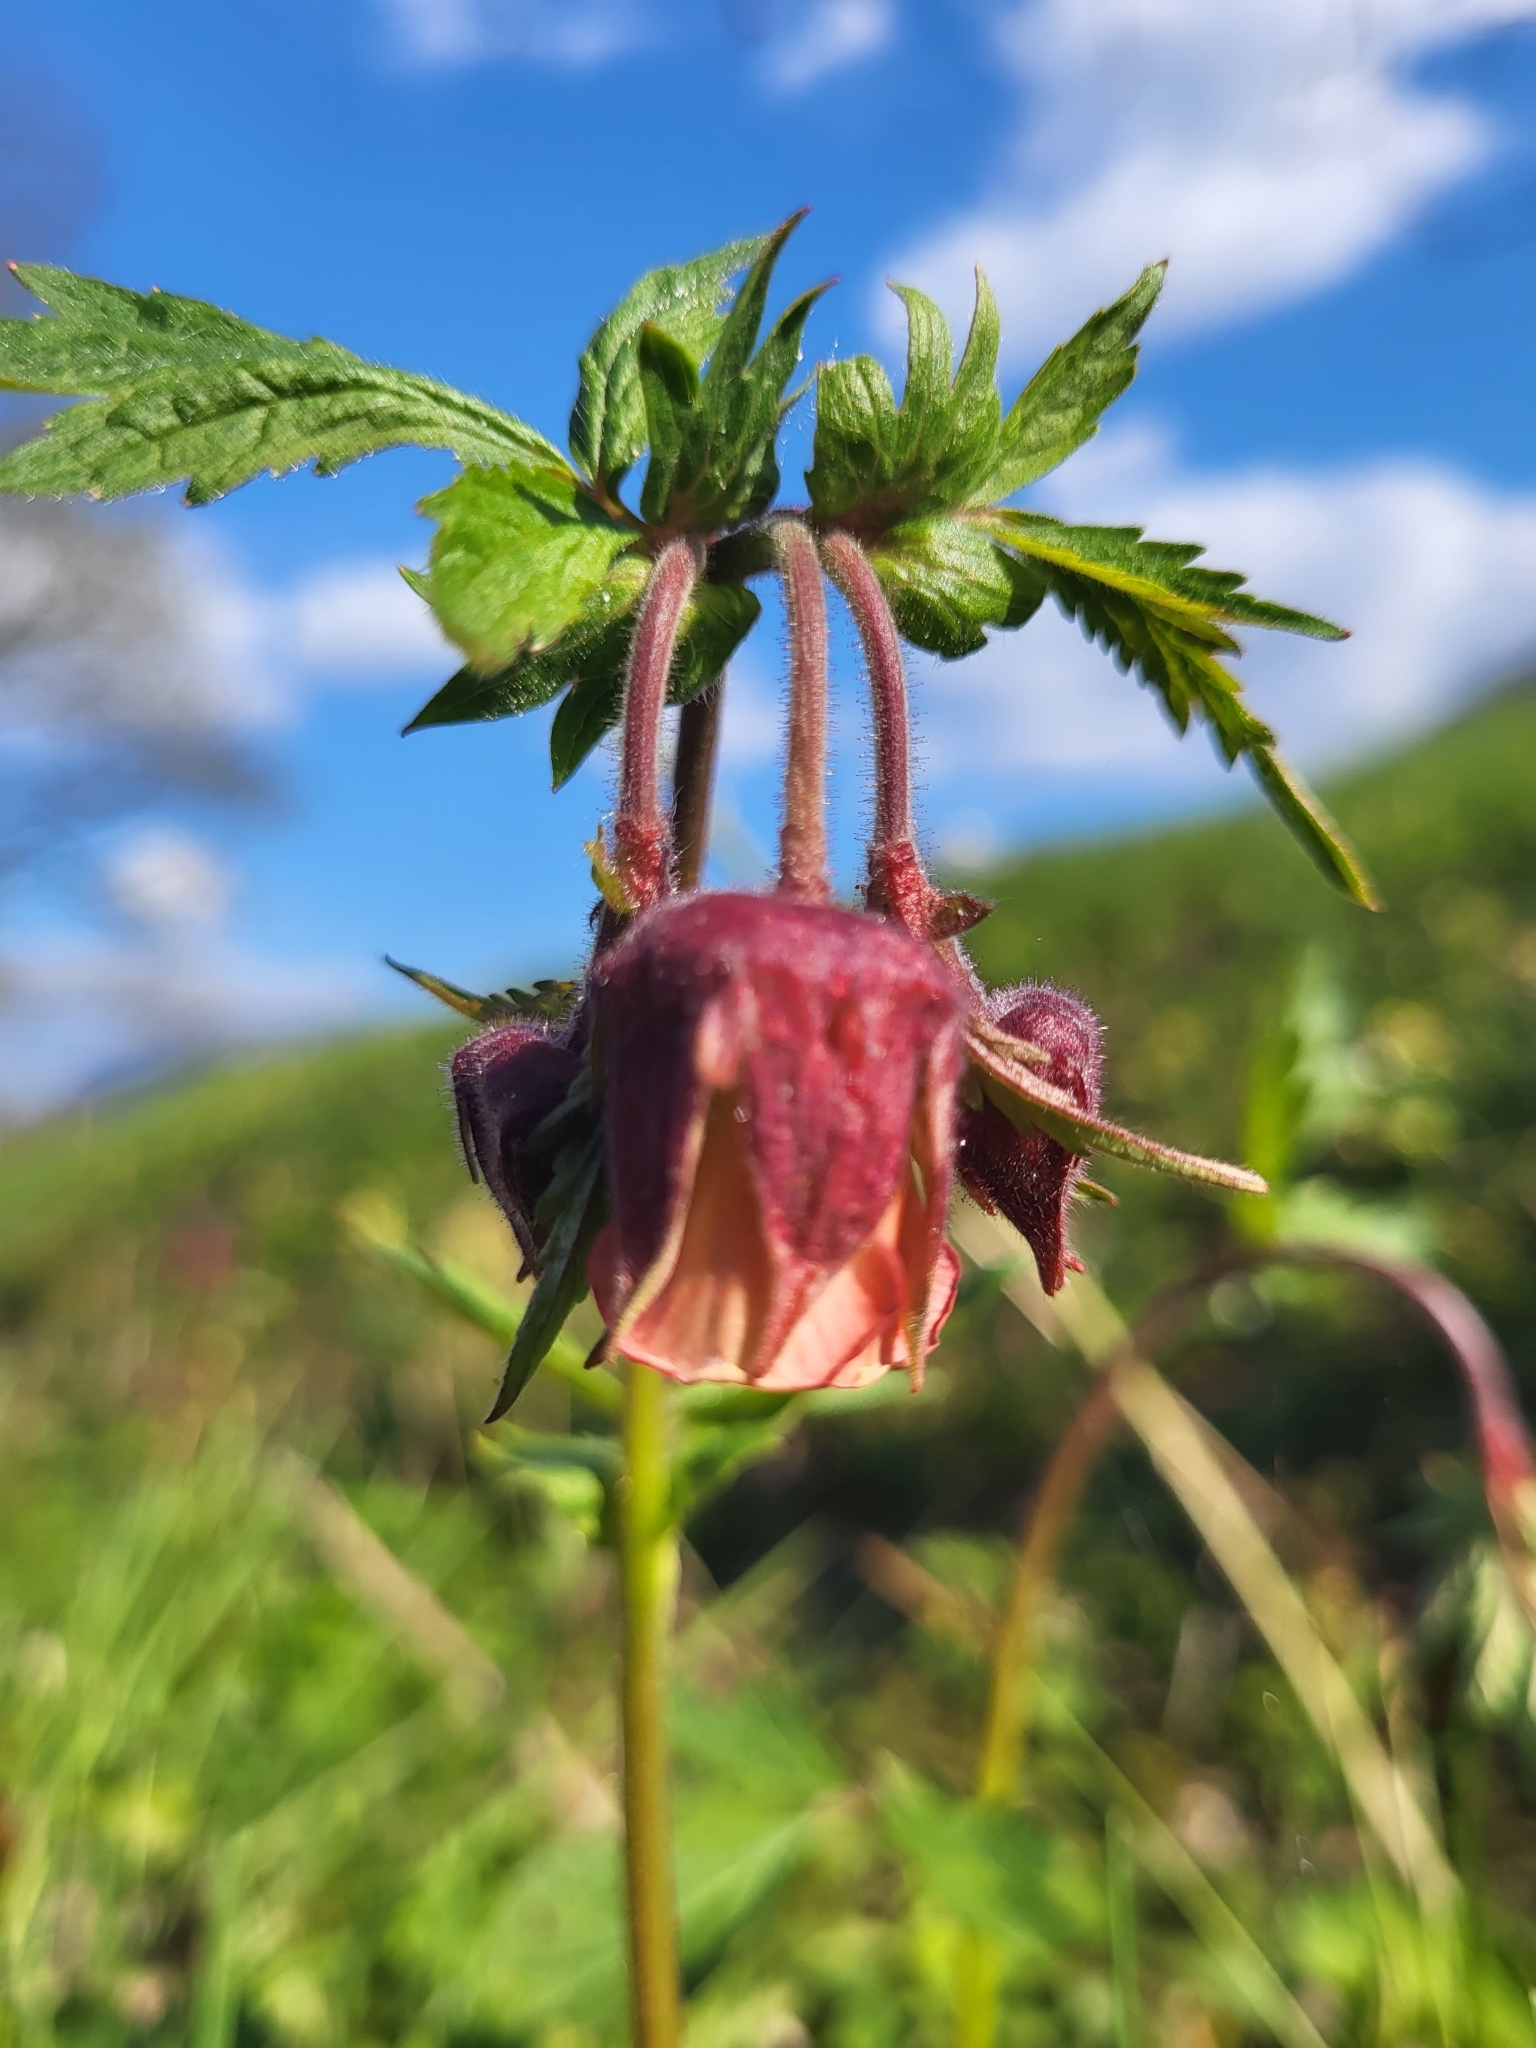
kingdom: Plantae
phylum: Tracheophyta
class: Magnoliopsida
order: Rosales
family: Rosaceae
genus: Geum
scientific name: Geum rivale
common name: Water avens
